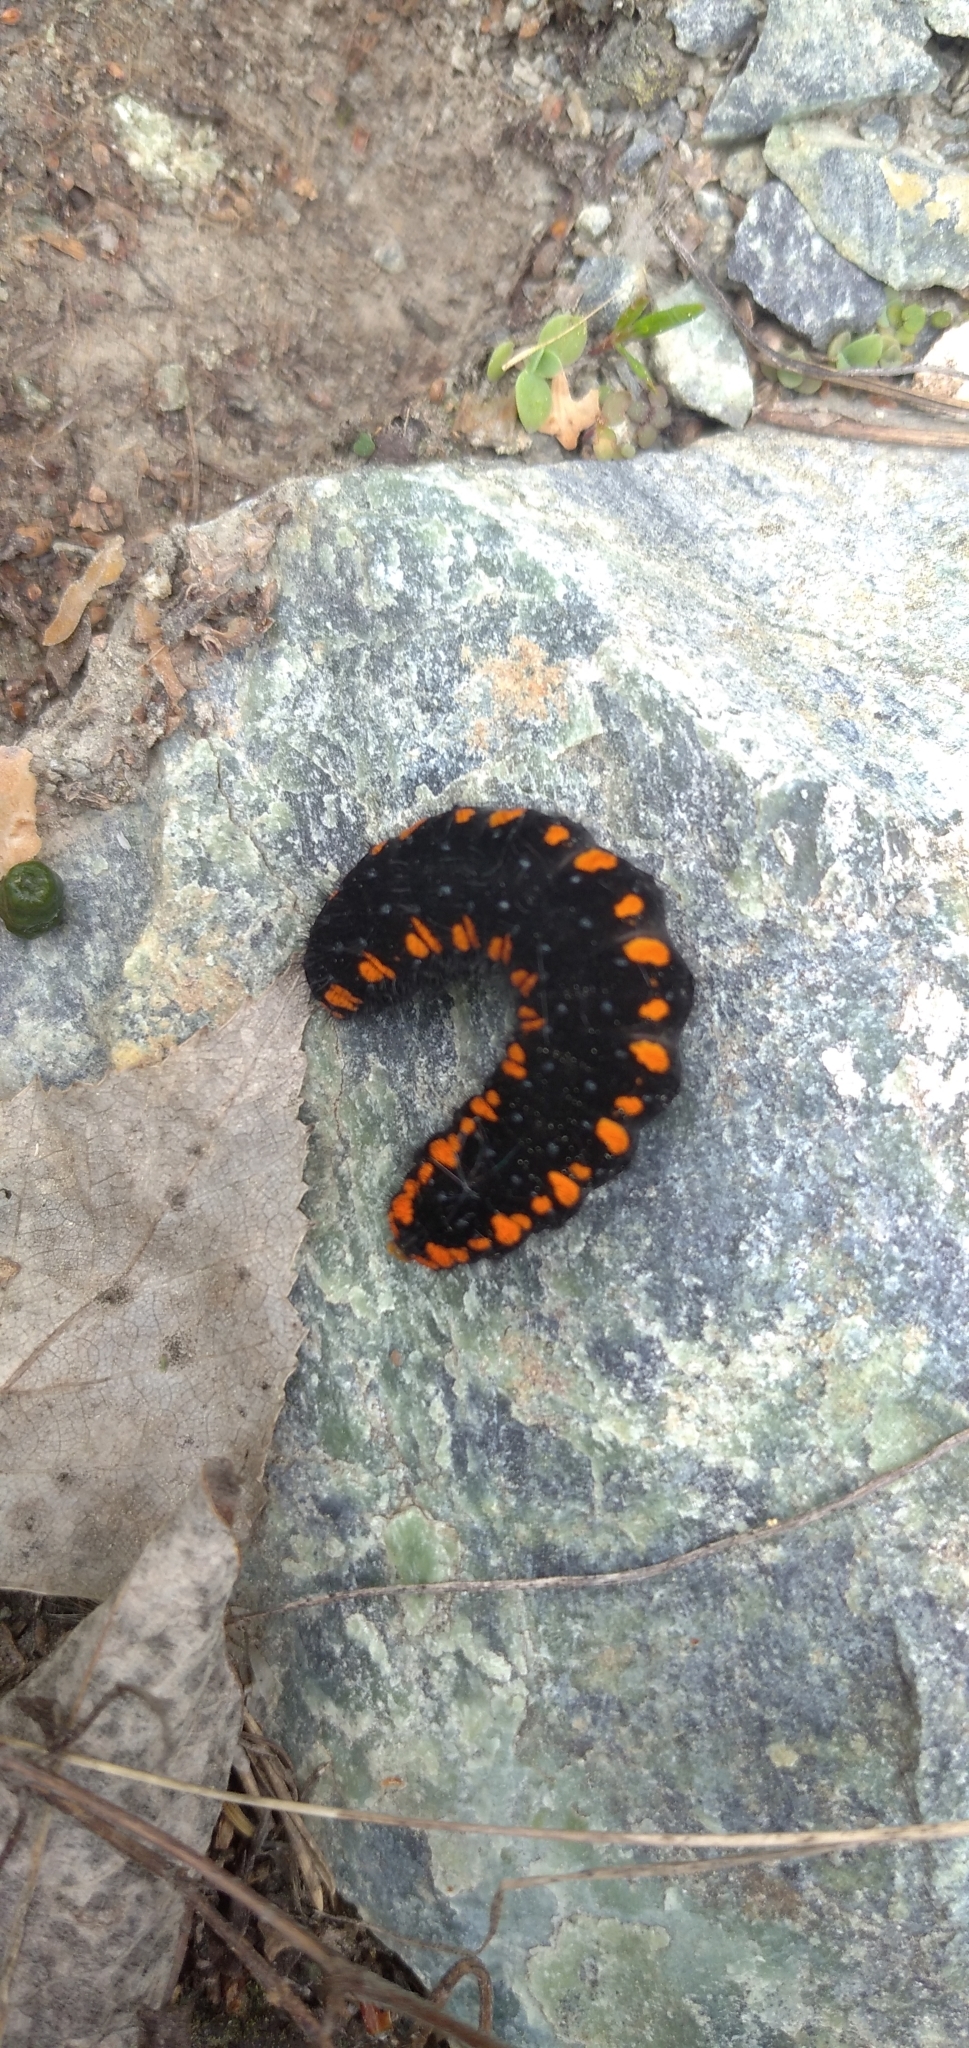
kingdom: Animalia
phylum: Arthropoda
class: Insecta
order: Lepidoptera
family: Papilionidae
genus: Parnassius
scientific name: Parnassius apollo
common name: Apollo
